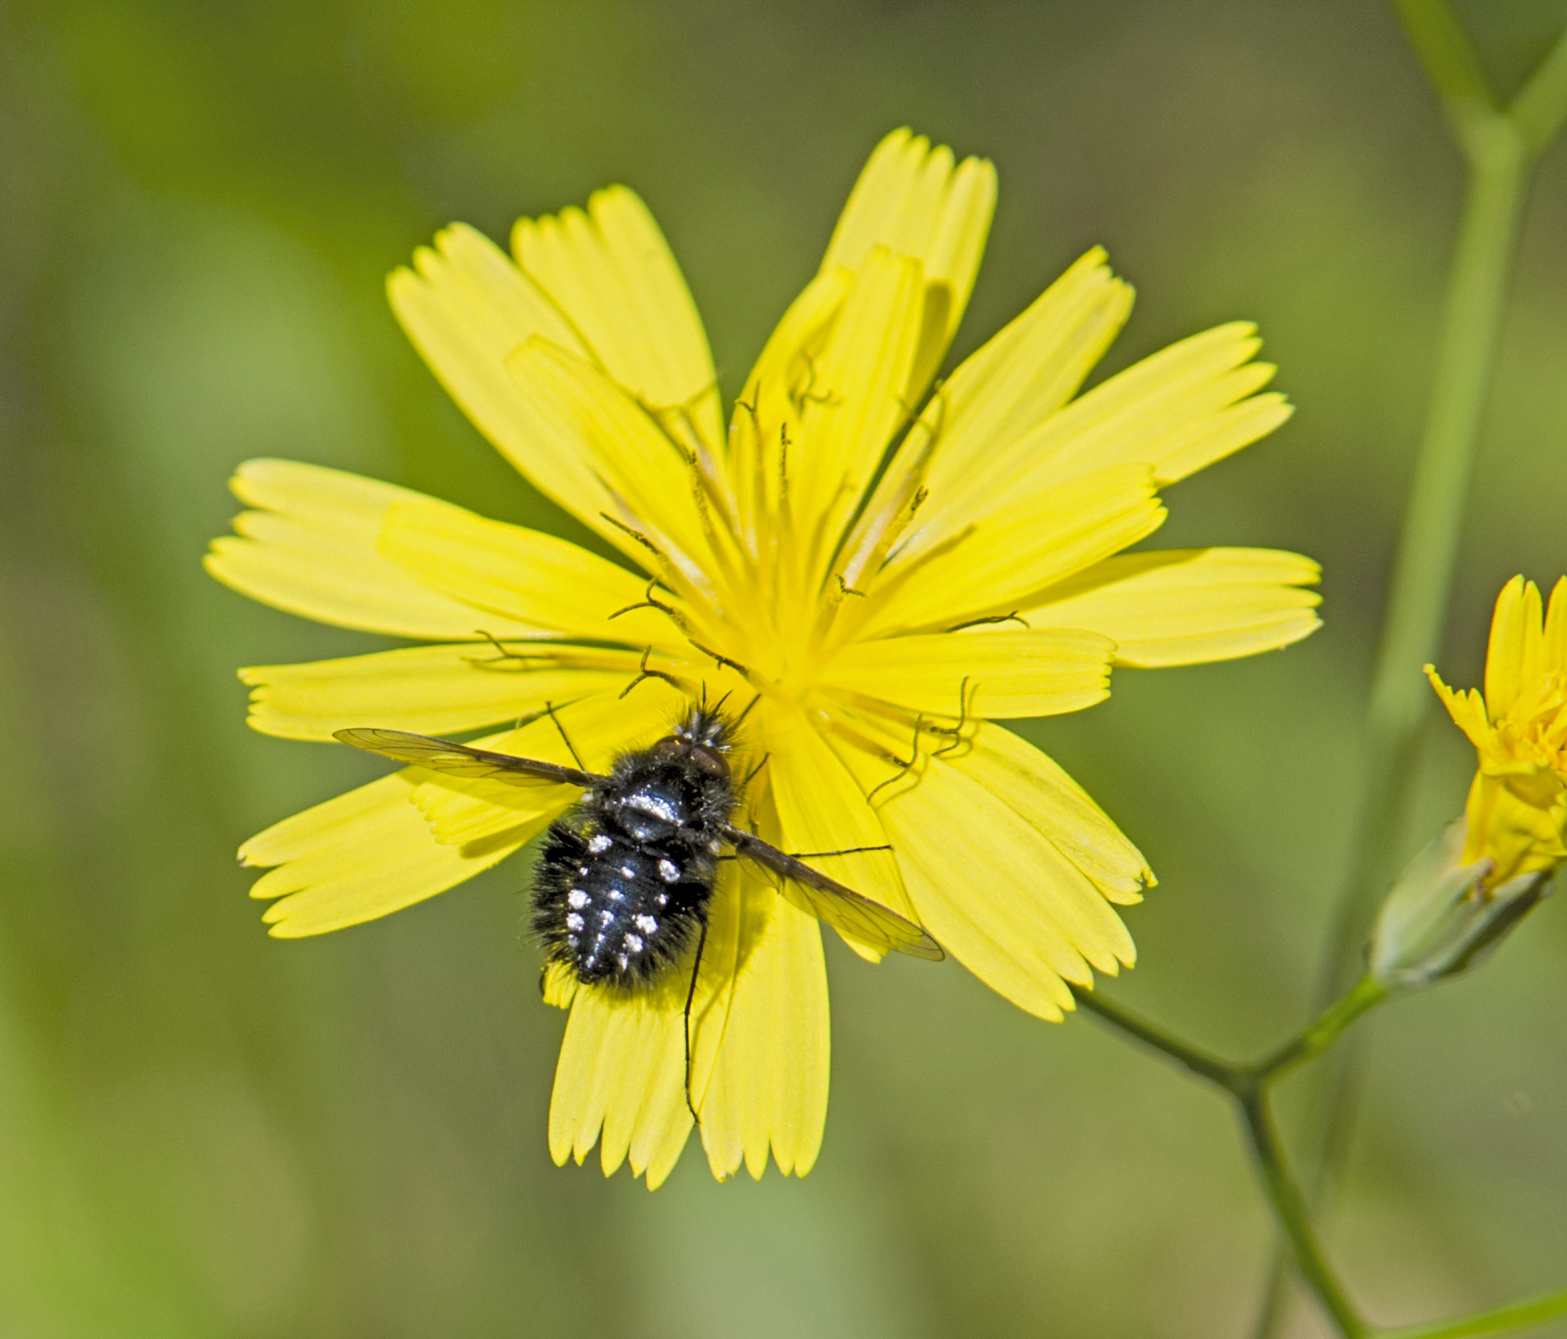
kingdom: Animalia
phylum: Arthropoda
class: Insecta
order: Diptera
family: Bombyliidae
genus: Bombylella
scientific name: Bombylella atra
